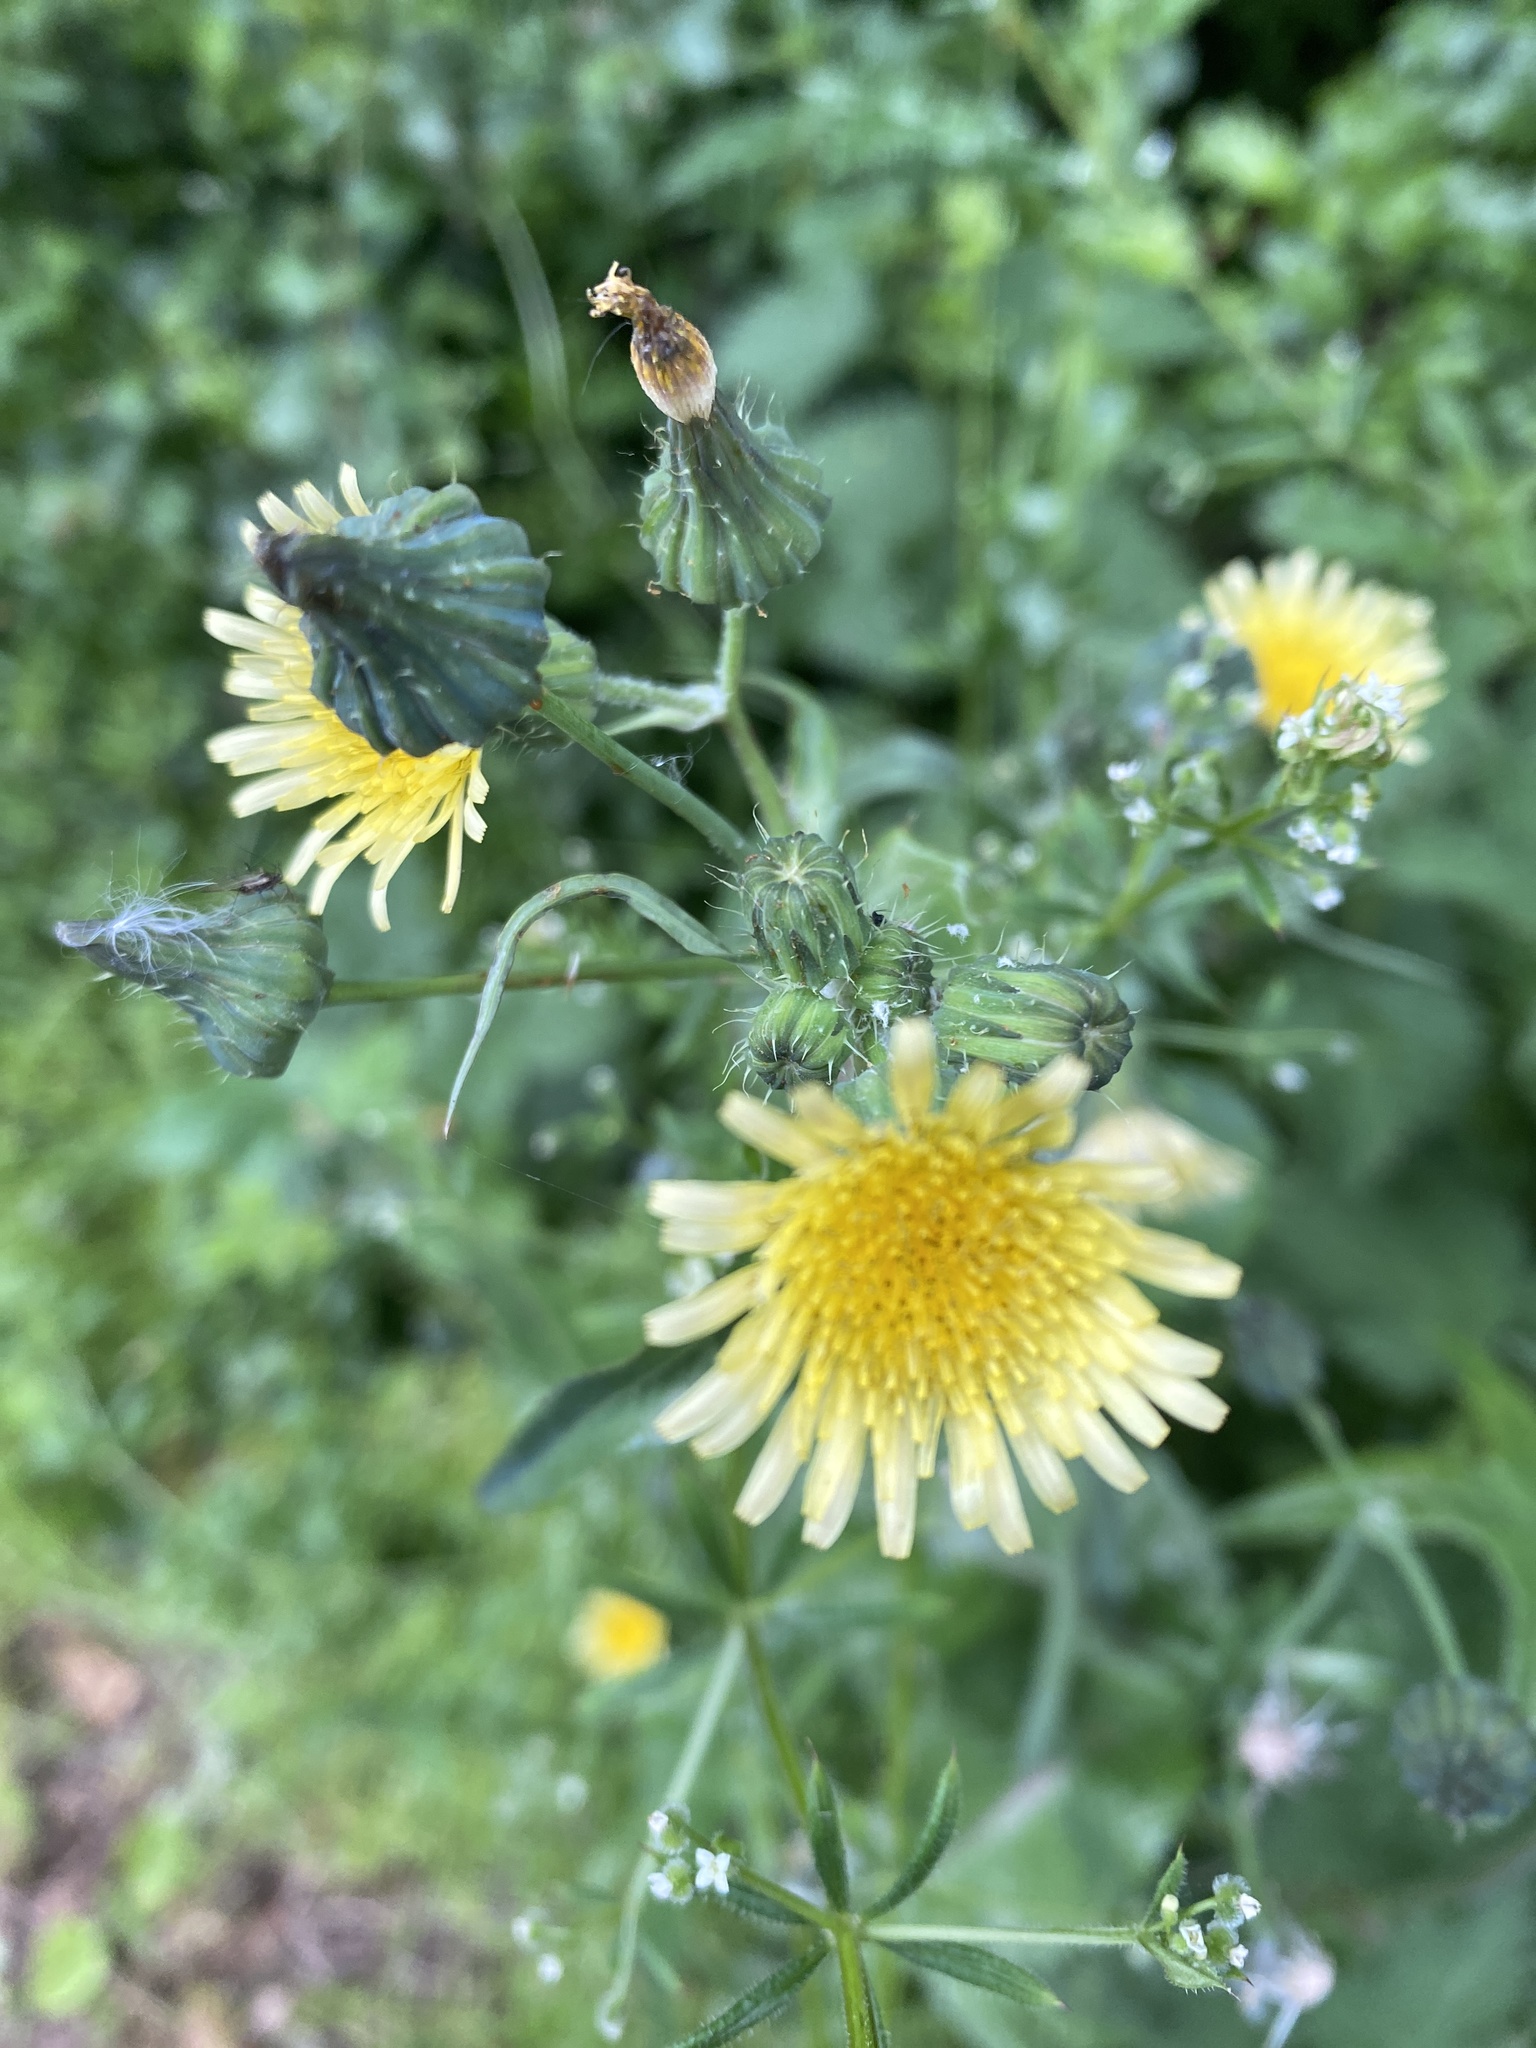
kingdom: Plantae
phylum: Tracheophyta
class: Magnoliopsida
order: Asterales
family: Asteraceae
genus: Sonchus
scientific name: Sonchus oleraceus
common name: Common sowthistle
